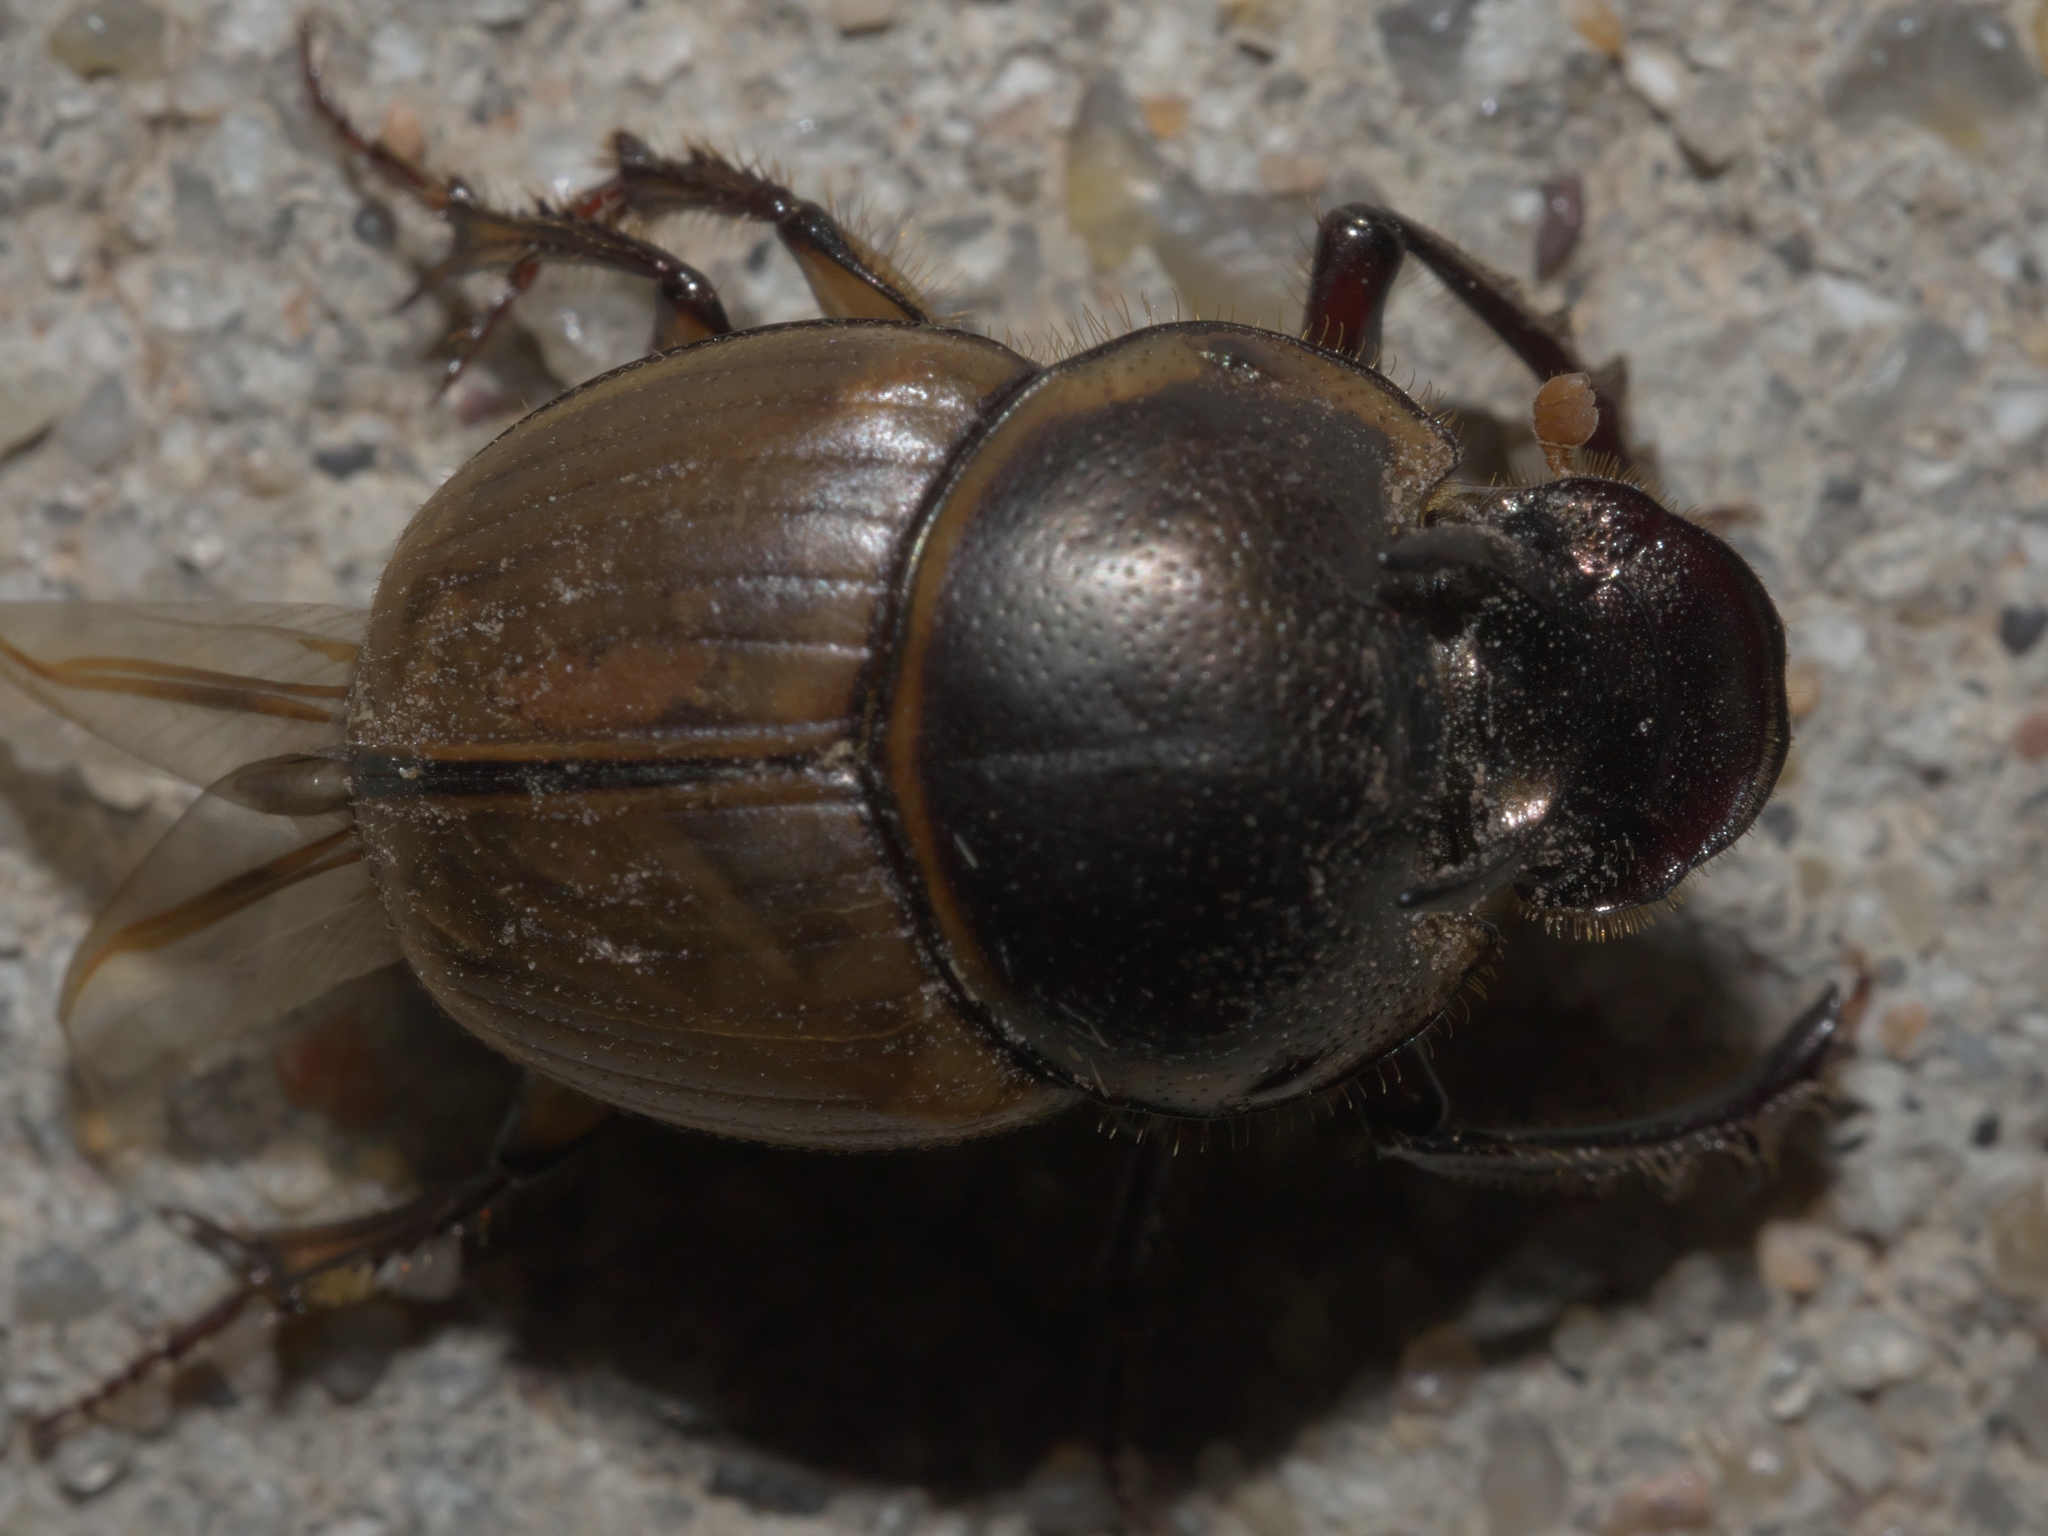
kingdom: Animalia
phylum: Arthropoda
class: Insecta
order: Coleoptera
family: Scarabaeidae
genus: Digitonthophagus
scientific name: Digitonthophagus gazella
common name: Brown dung beetle
